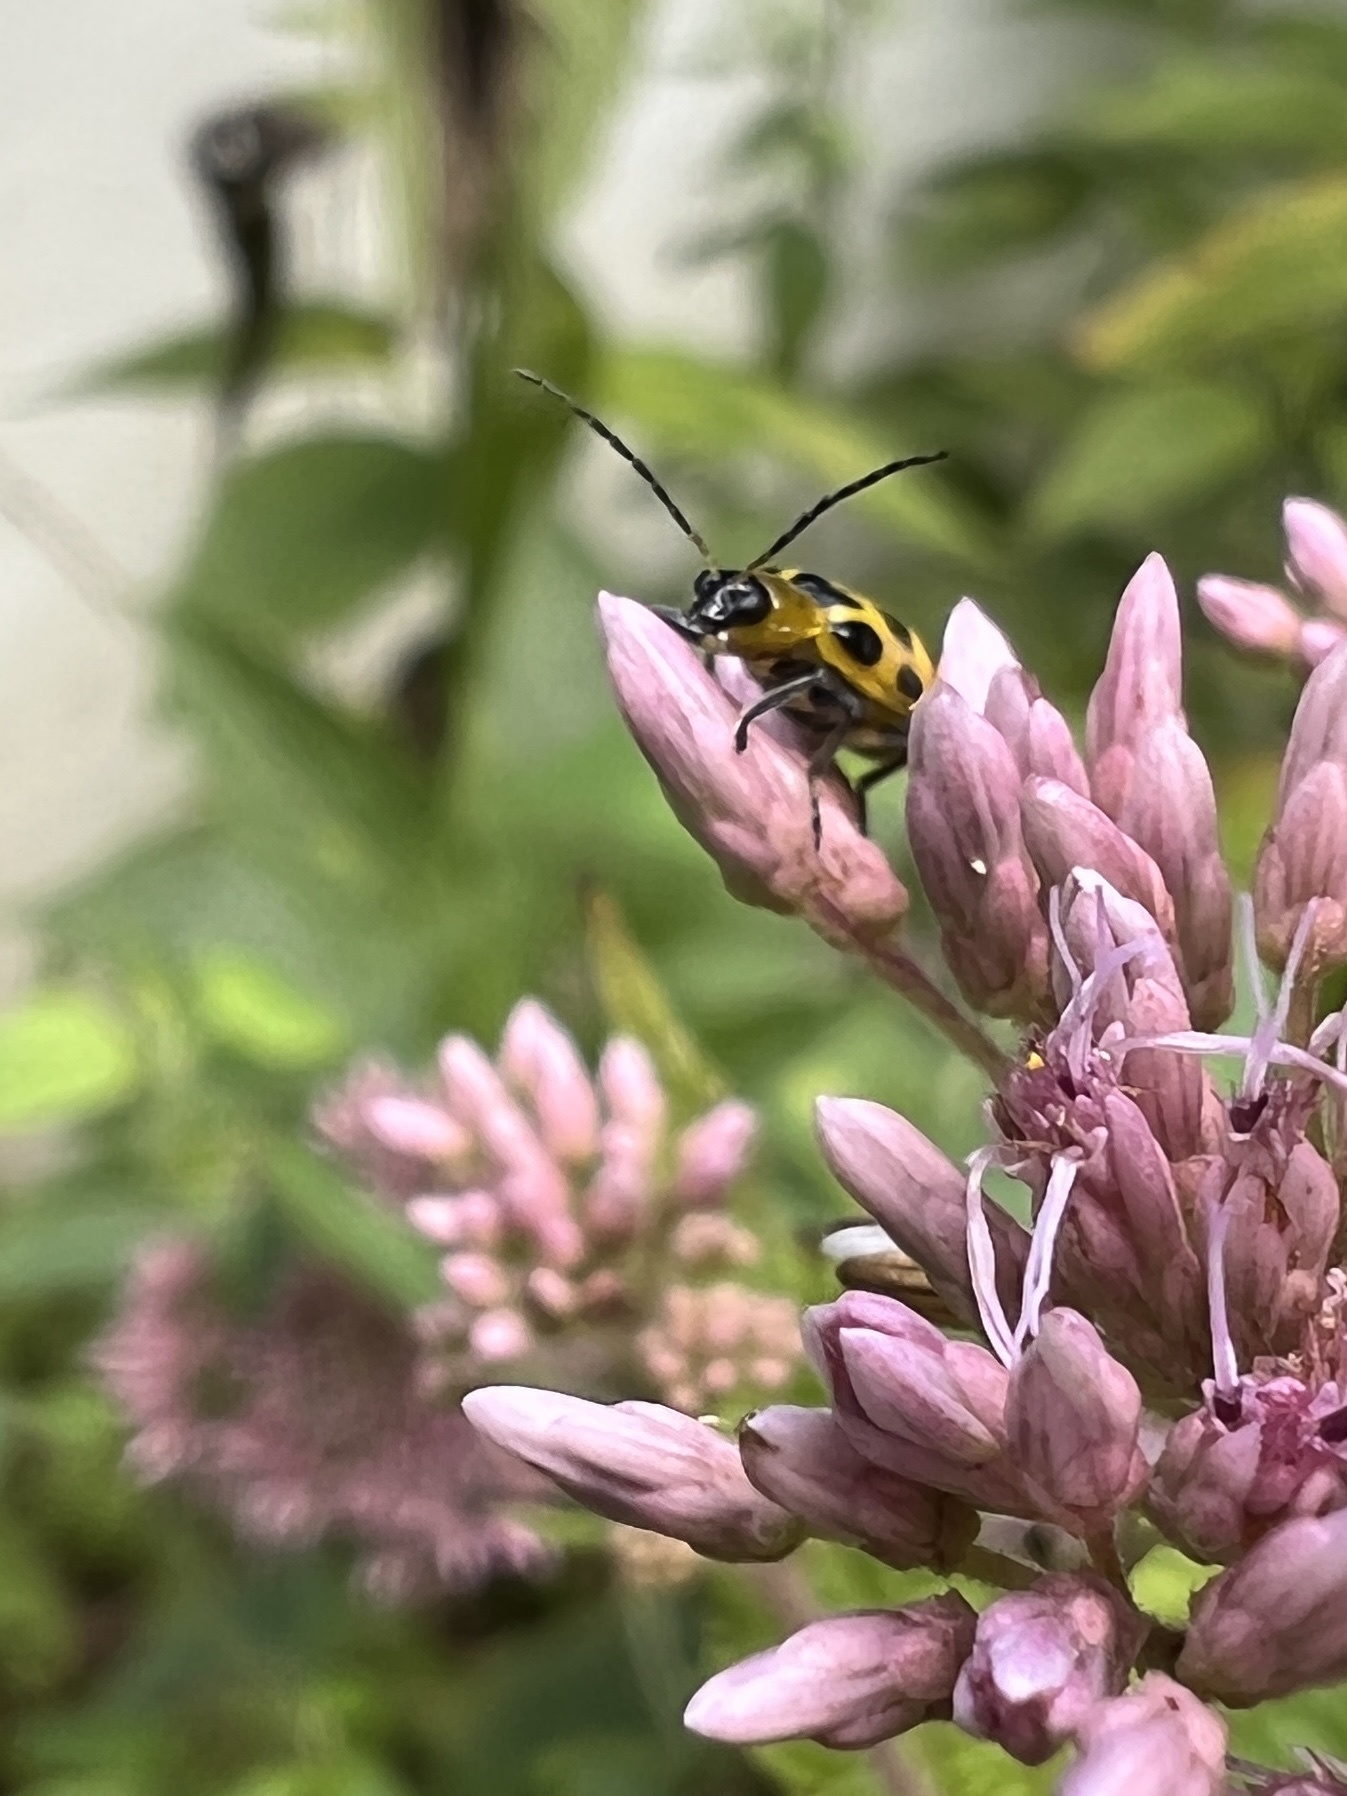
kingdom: Animalia
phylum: Arthropoda
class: Insecta
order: Coleoptera
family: Chrysomelidae
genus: Diabrotica
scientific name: Diabrotica undecimpunctata
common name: Spotted cucumber beetle
